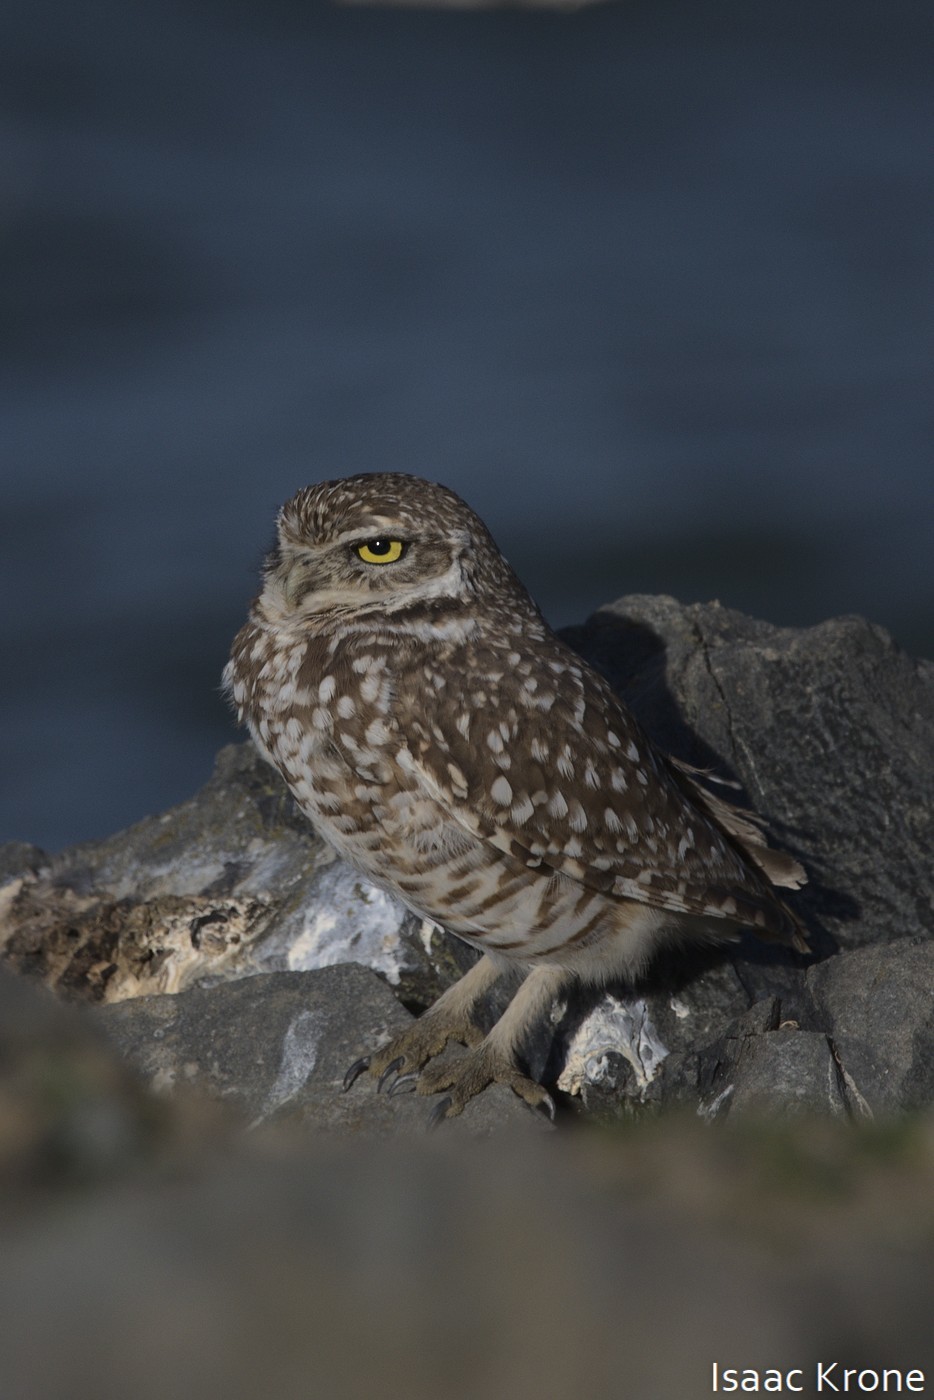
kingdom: Animalia
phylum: Chordata
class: Aves
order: Strigiformes
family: Strigidae
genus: Athene
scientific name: Athene cunicularia
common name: Burrowing owl
